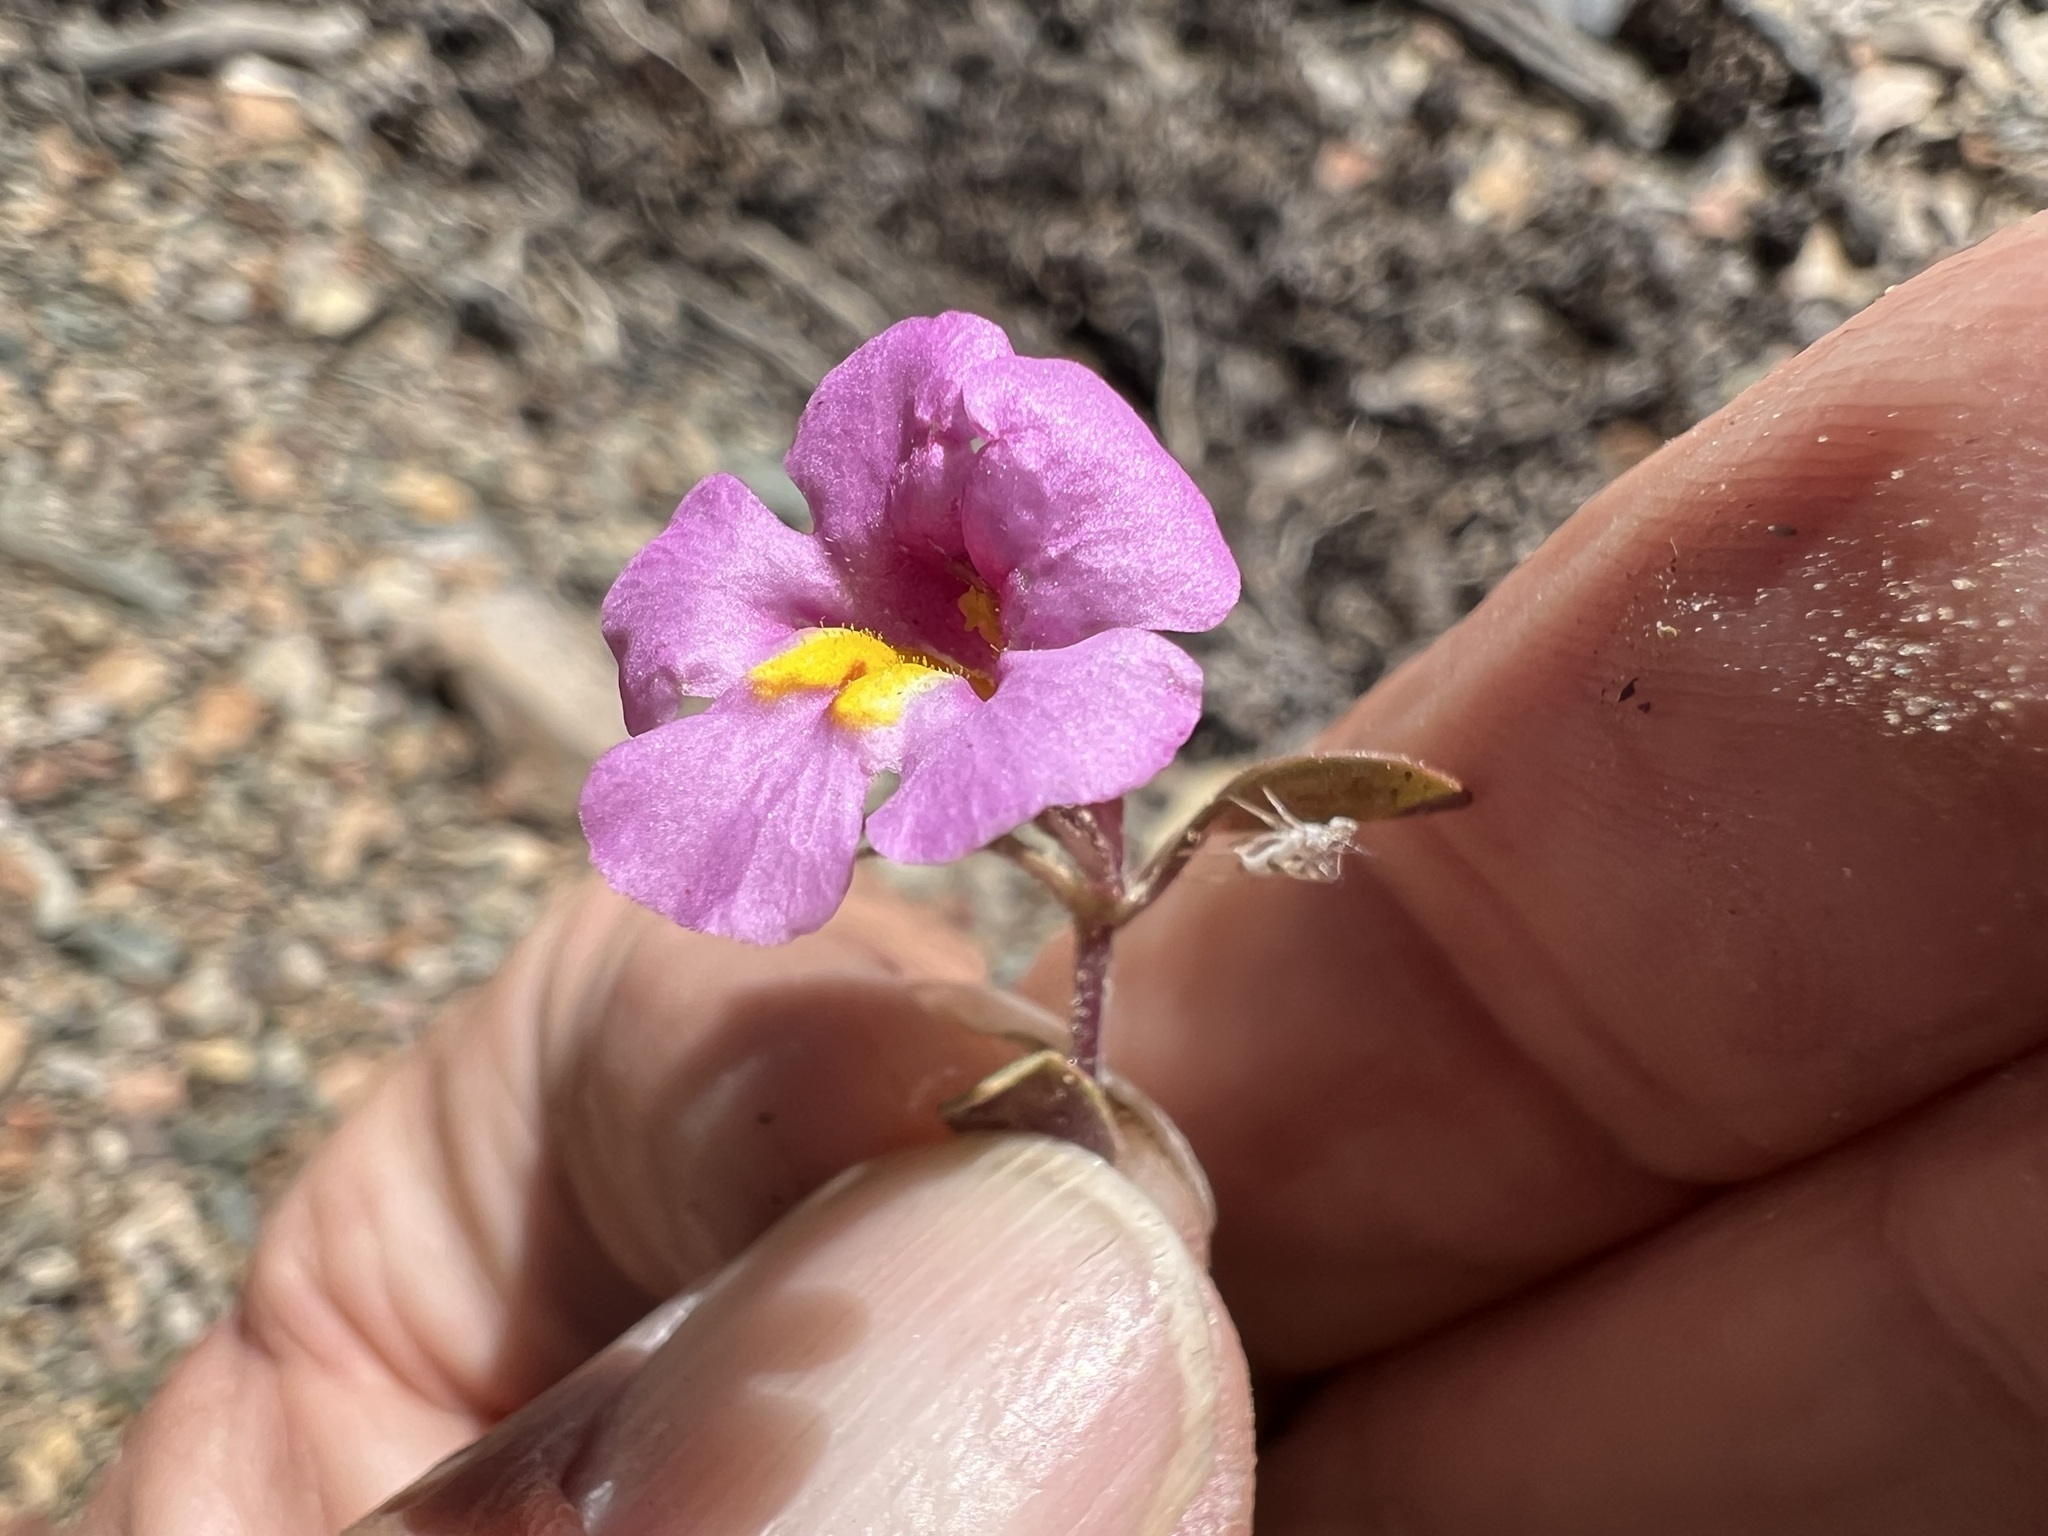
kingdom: Plantae
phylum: Tracheophyta
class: Magnoliopsida
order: Lamiales
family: Phrymaceae
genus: Diplacus
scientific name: Diplacus parryi
